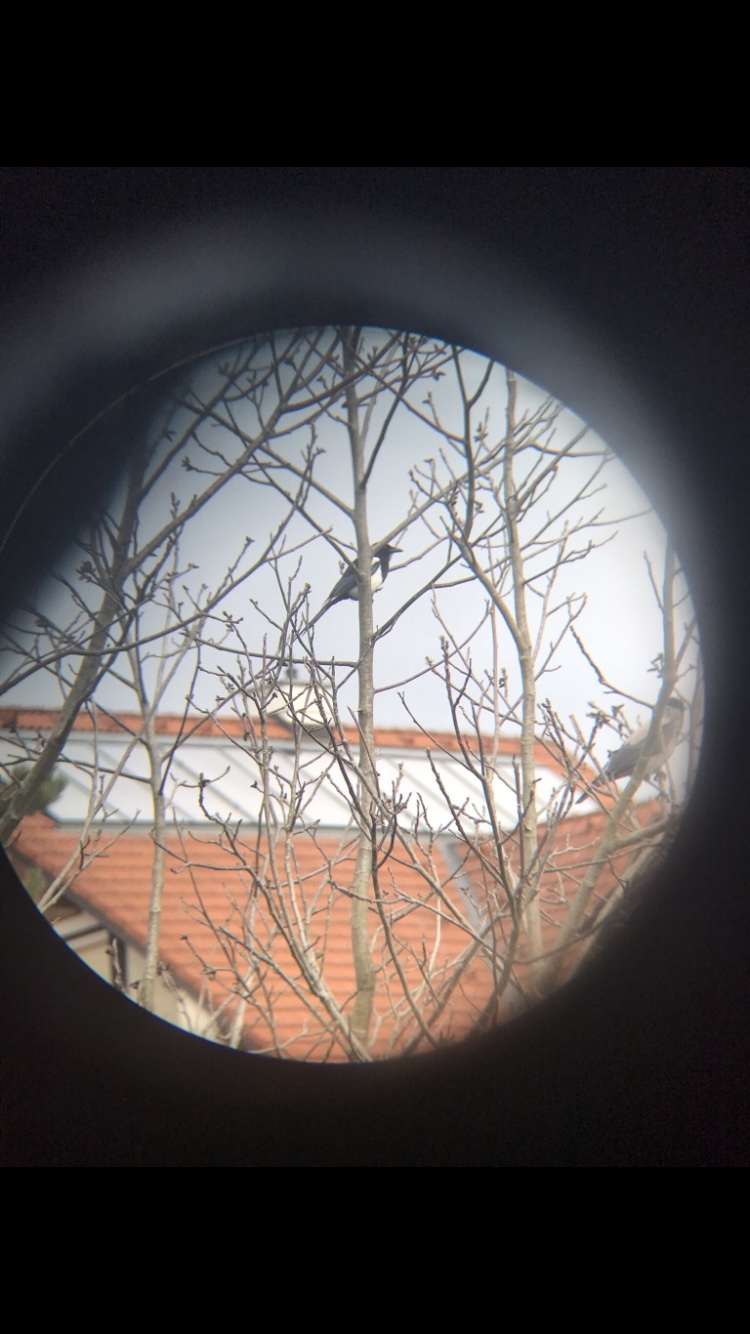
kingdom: Animalia
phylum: Chordata
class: Aves
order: Passeriformes
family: Corvidae
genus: Pica
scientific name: Pica pica
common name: Eurasian magpie
